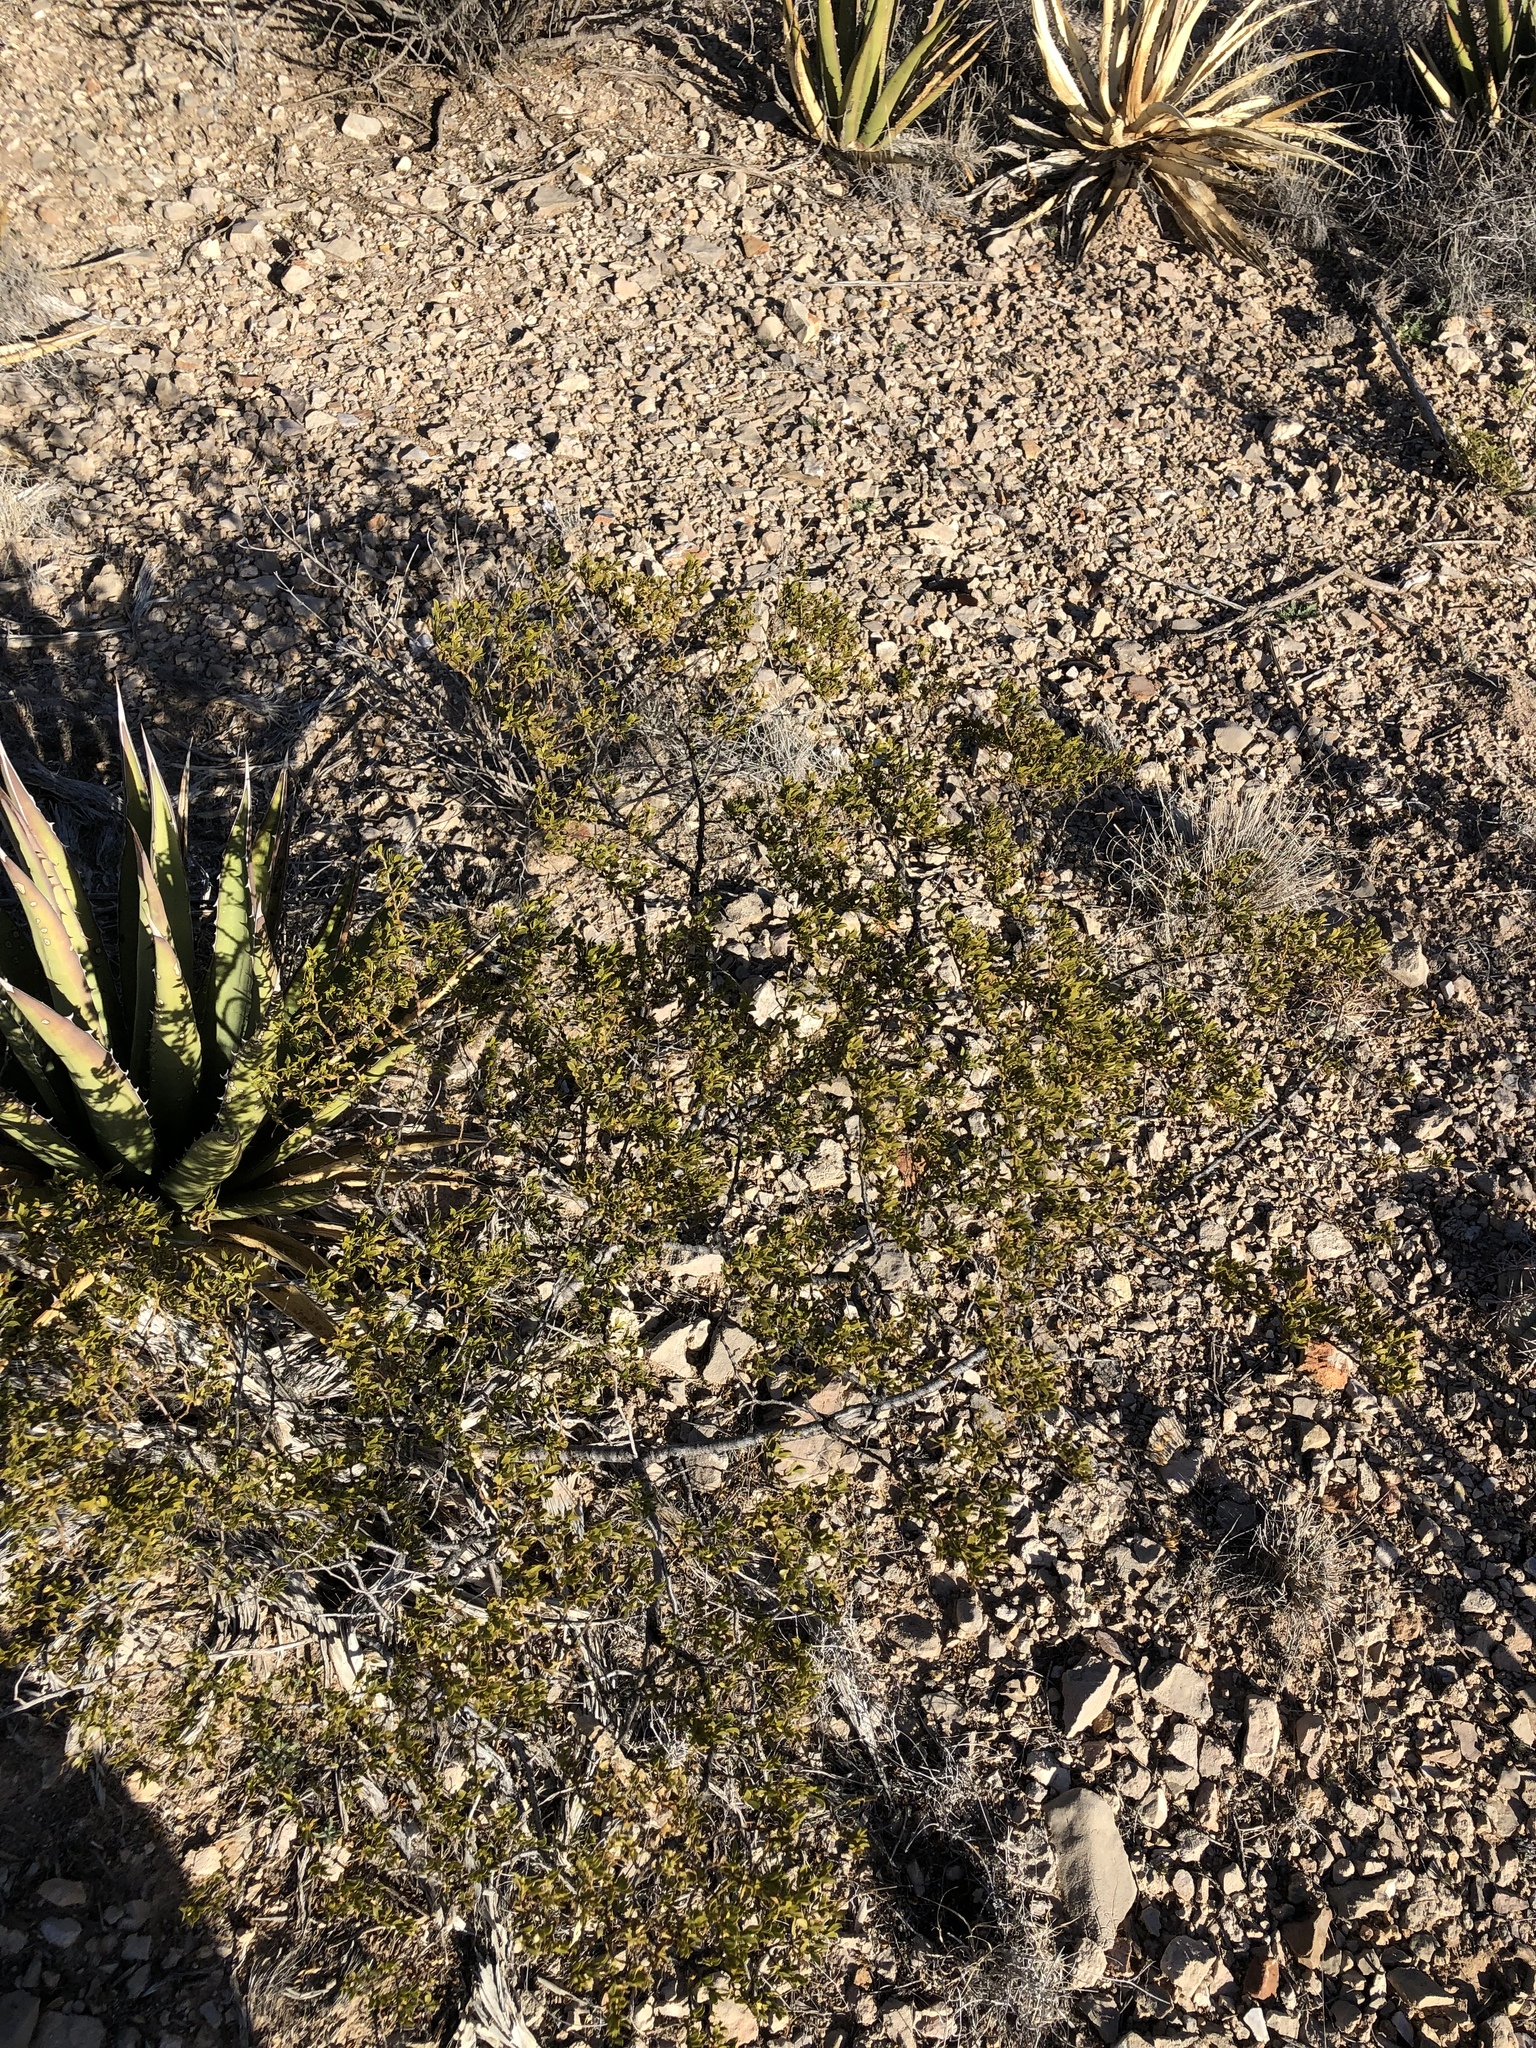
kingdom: Plantae
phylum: Tracheophyta
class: Magnoliopsida
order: Zygophyllales
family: Zygophyllaceae
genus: Larrea
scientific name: Larrea tridentata
